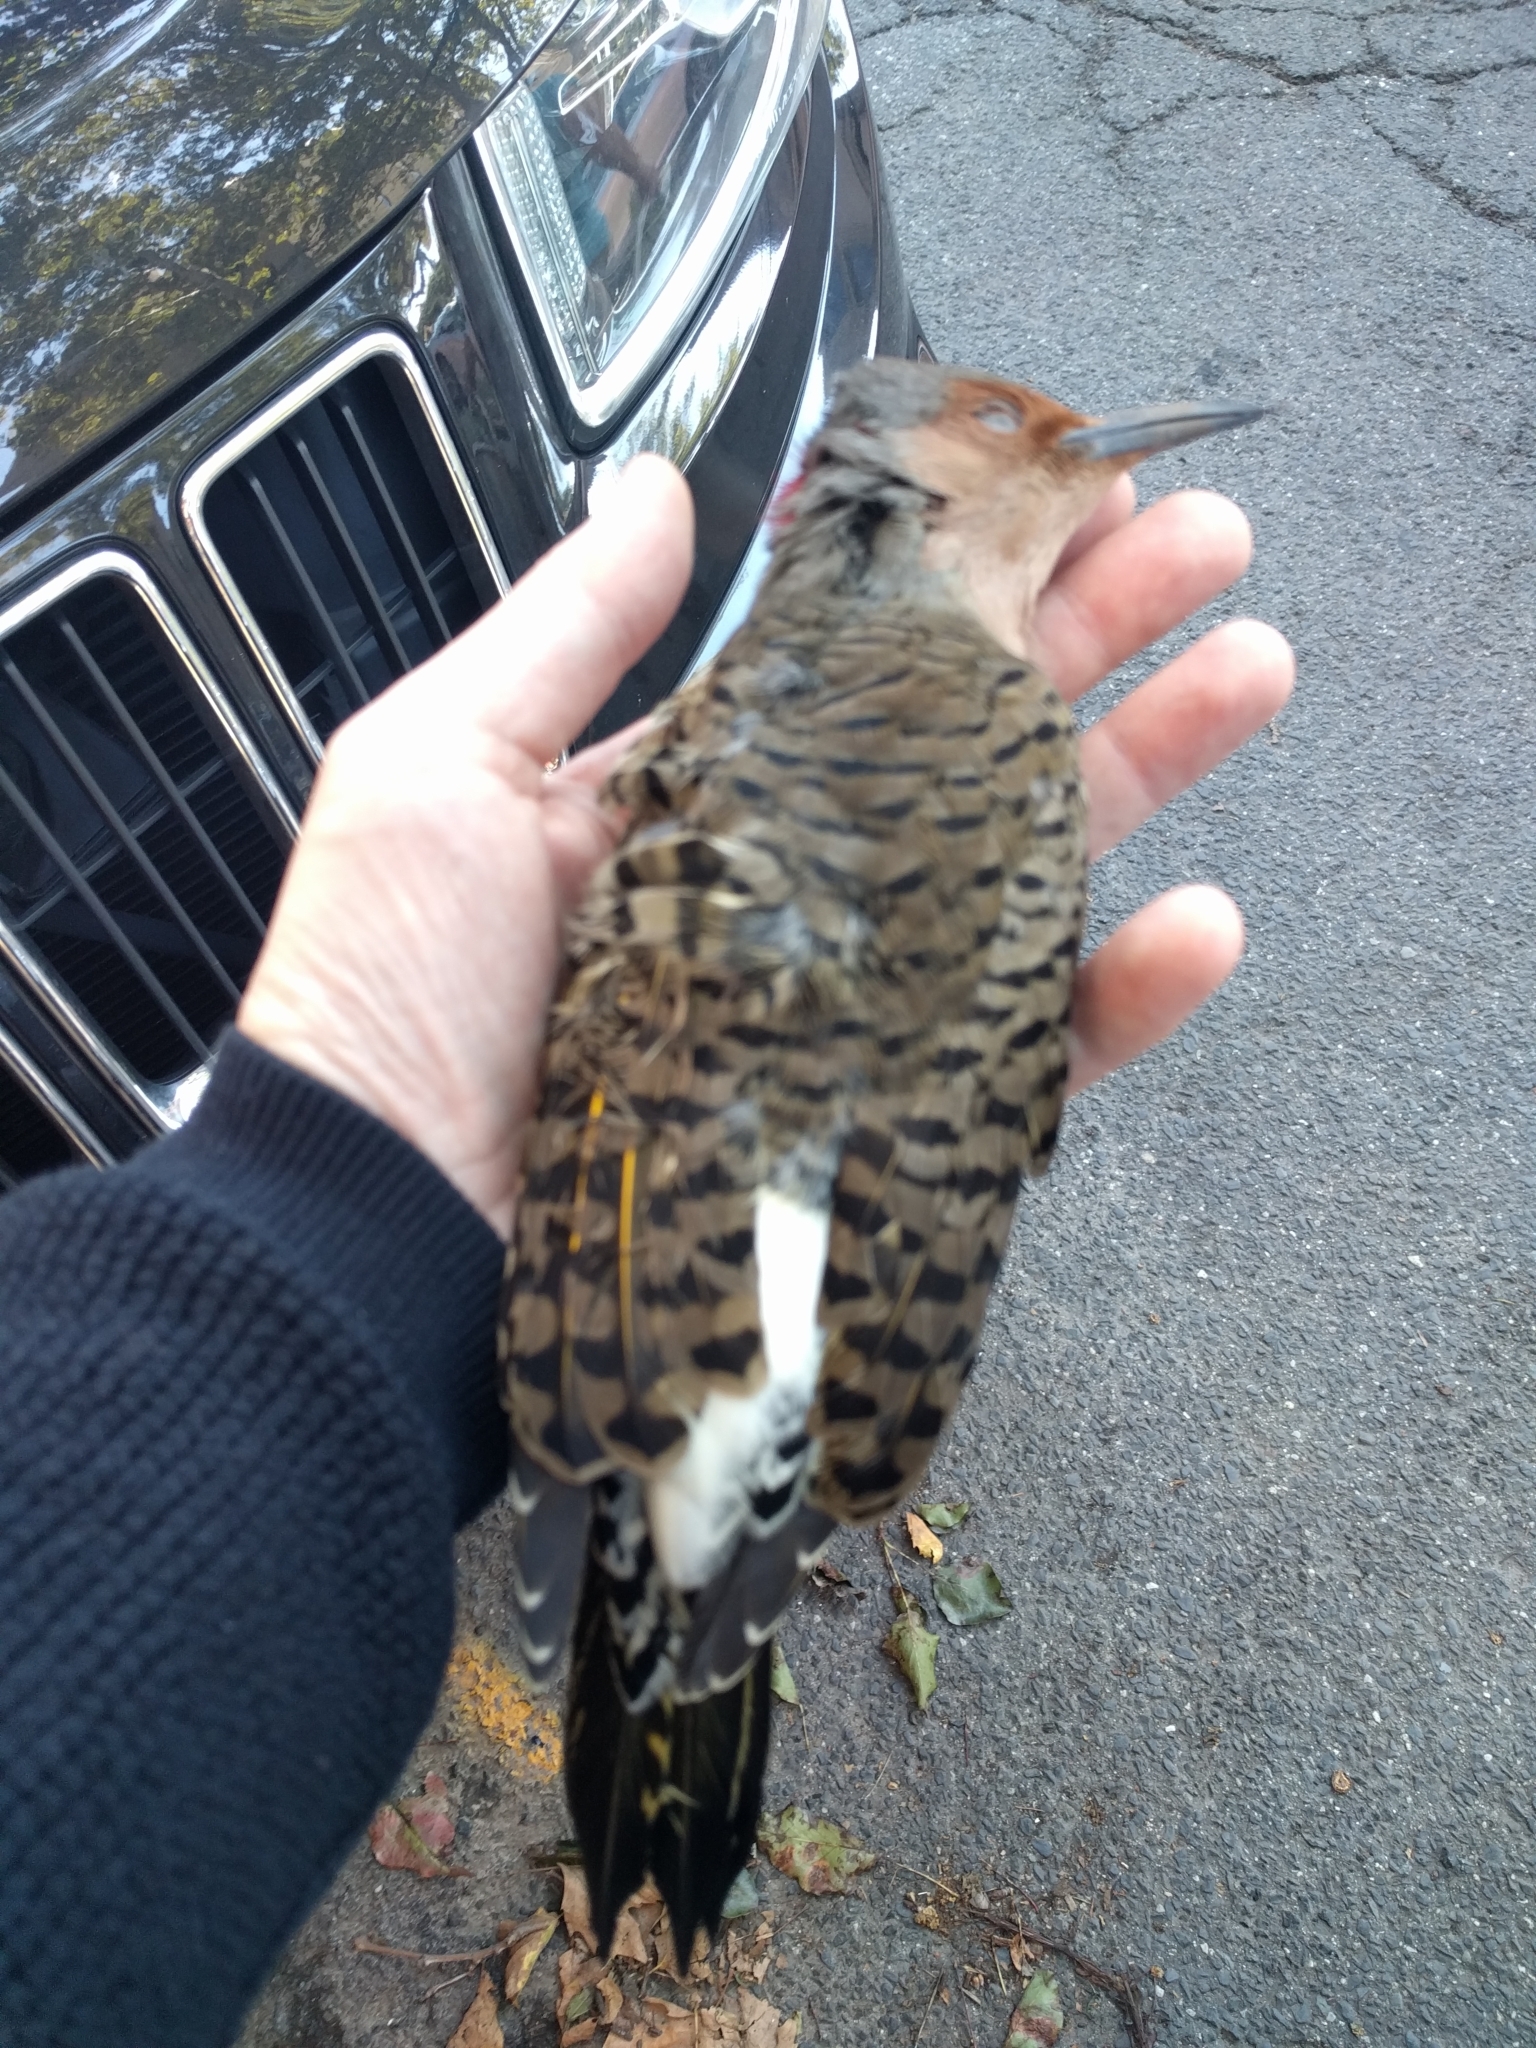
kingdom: Animalia
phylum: Chordata
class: Aves
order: Piciformes
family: Picidae
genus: Colaptes
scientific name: Colaptes auratus
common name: Northern flicker
